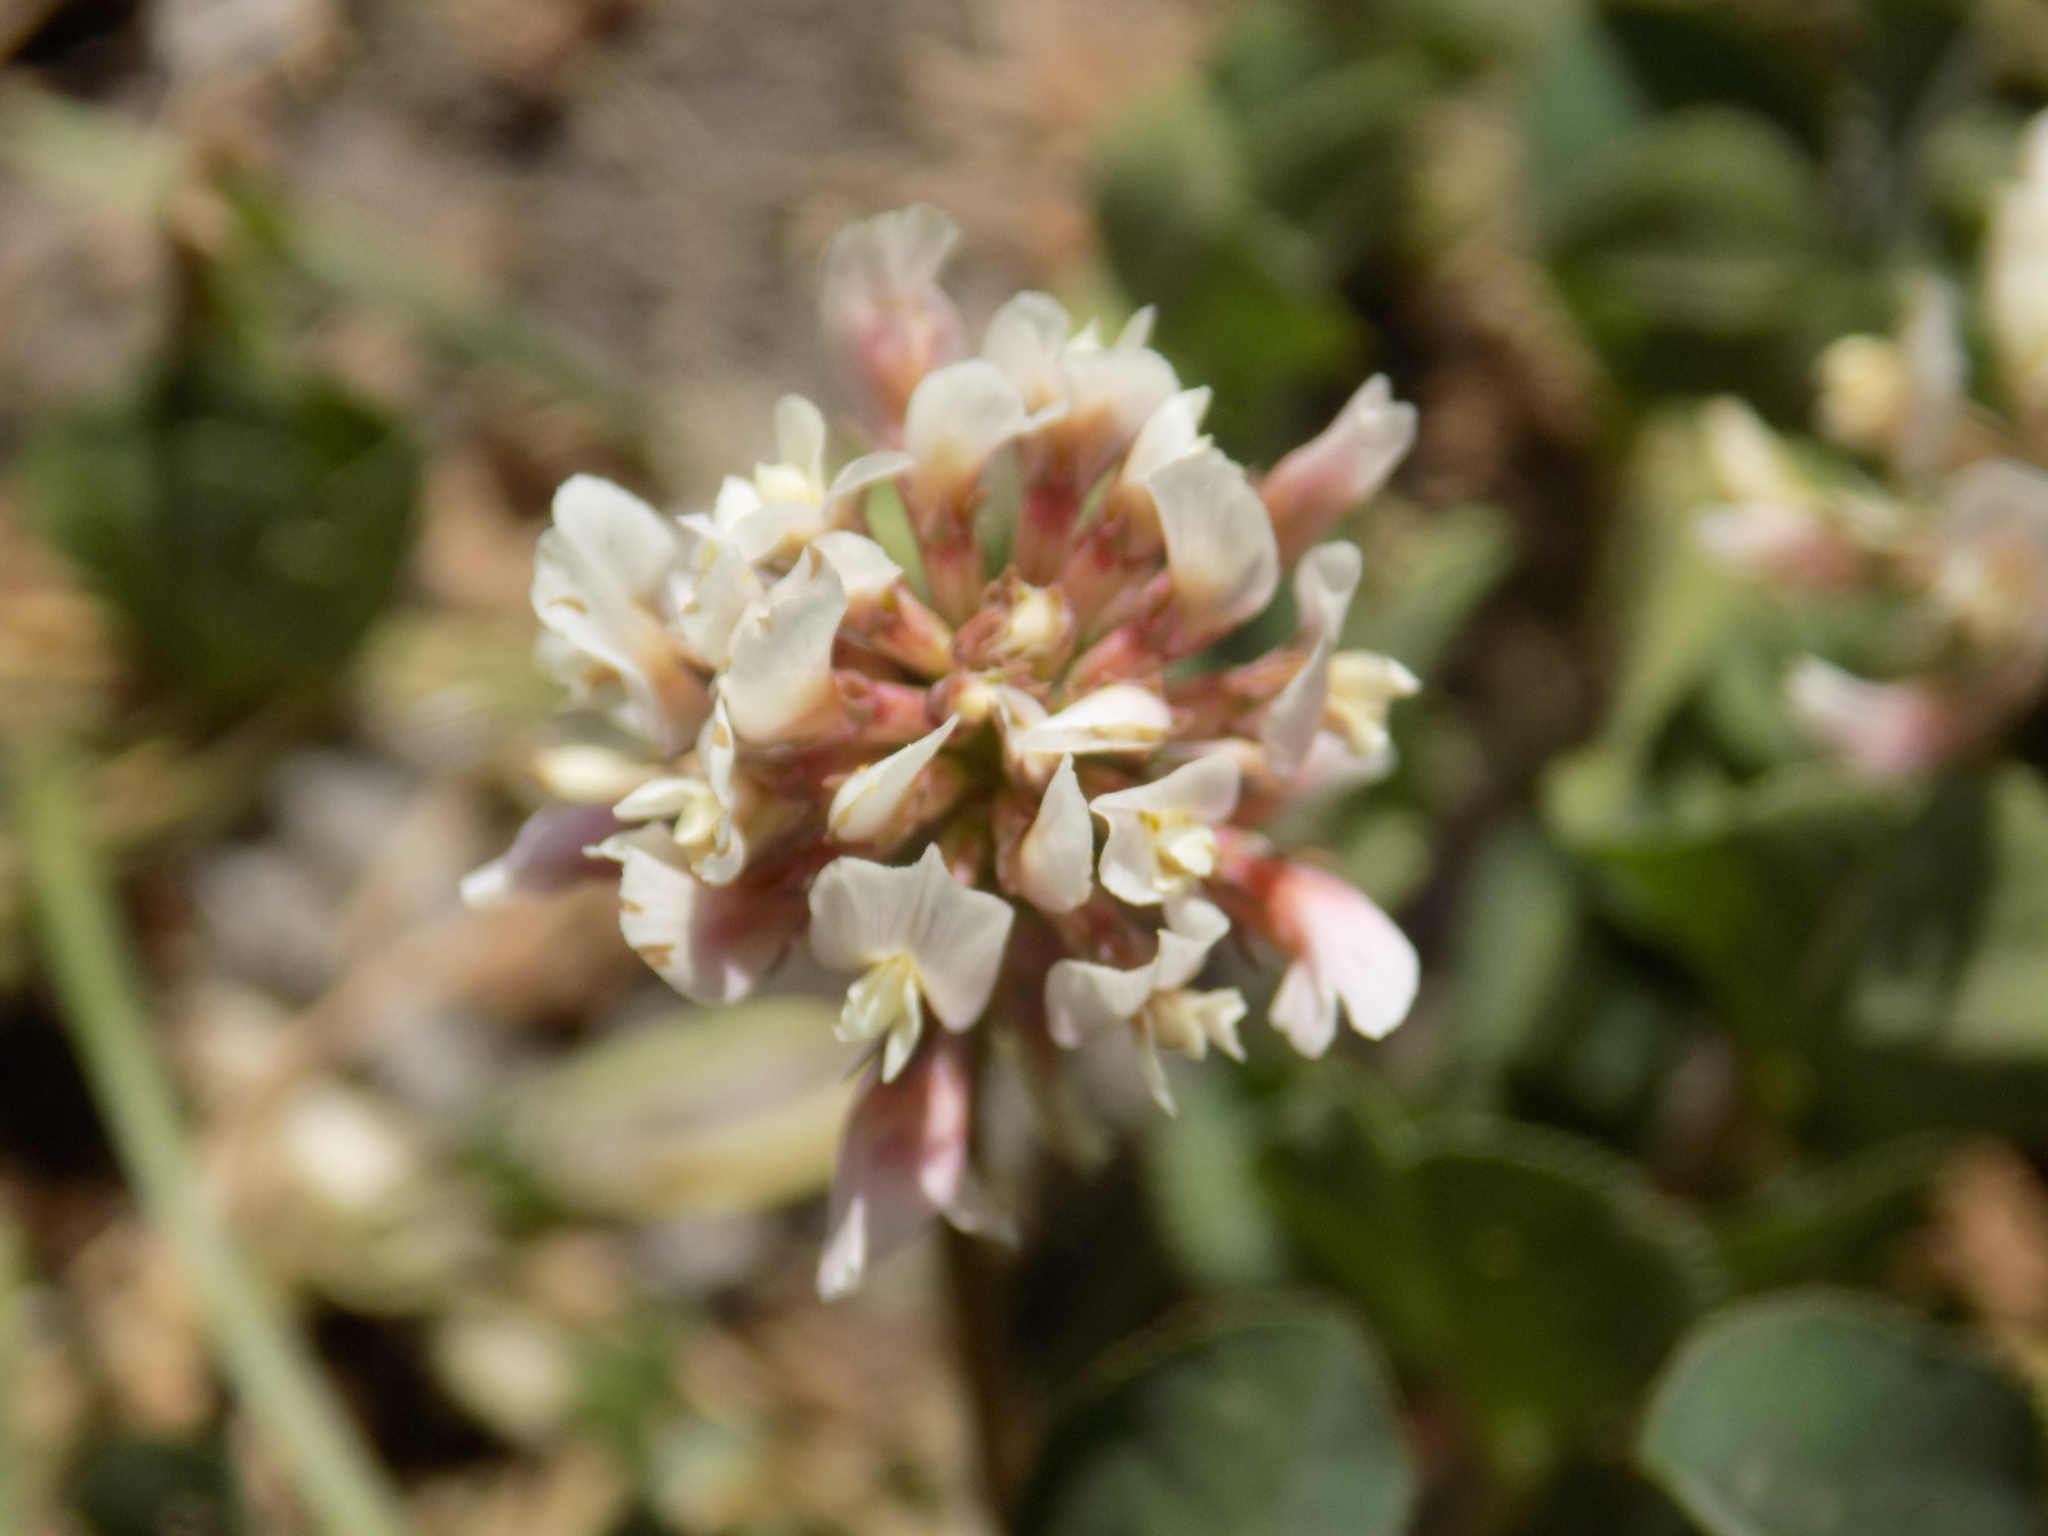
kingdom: Plantae
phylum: Tracheophyta
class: Magnoliopsida
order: Fabales
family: Fabaceae
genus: Trifolium
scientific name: Trifolium repens
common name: White clover
